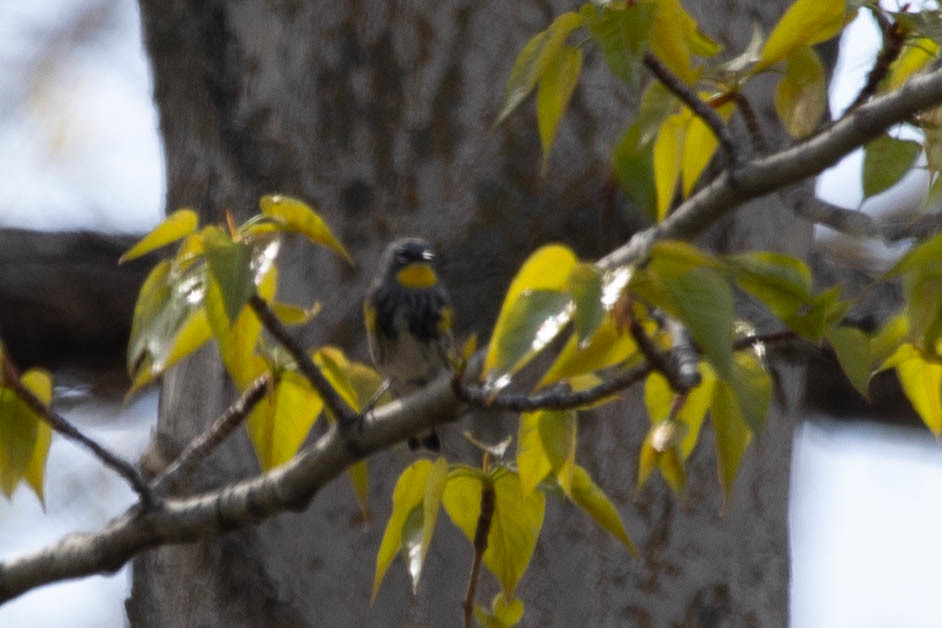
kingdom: Animalia
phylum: Chordata
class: Aves
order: Passeriformes
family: Parulidae
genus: Setophaga
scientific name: Setophaga auduboni
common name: Audubon's warbler
